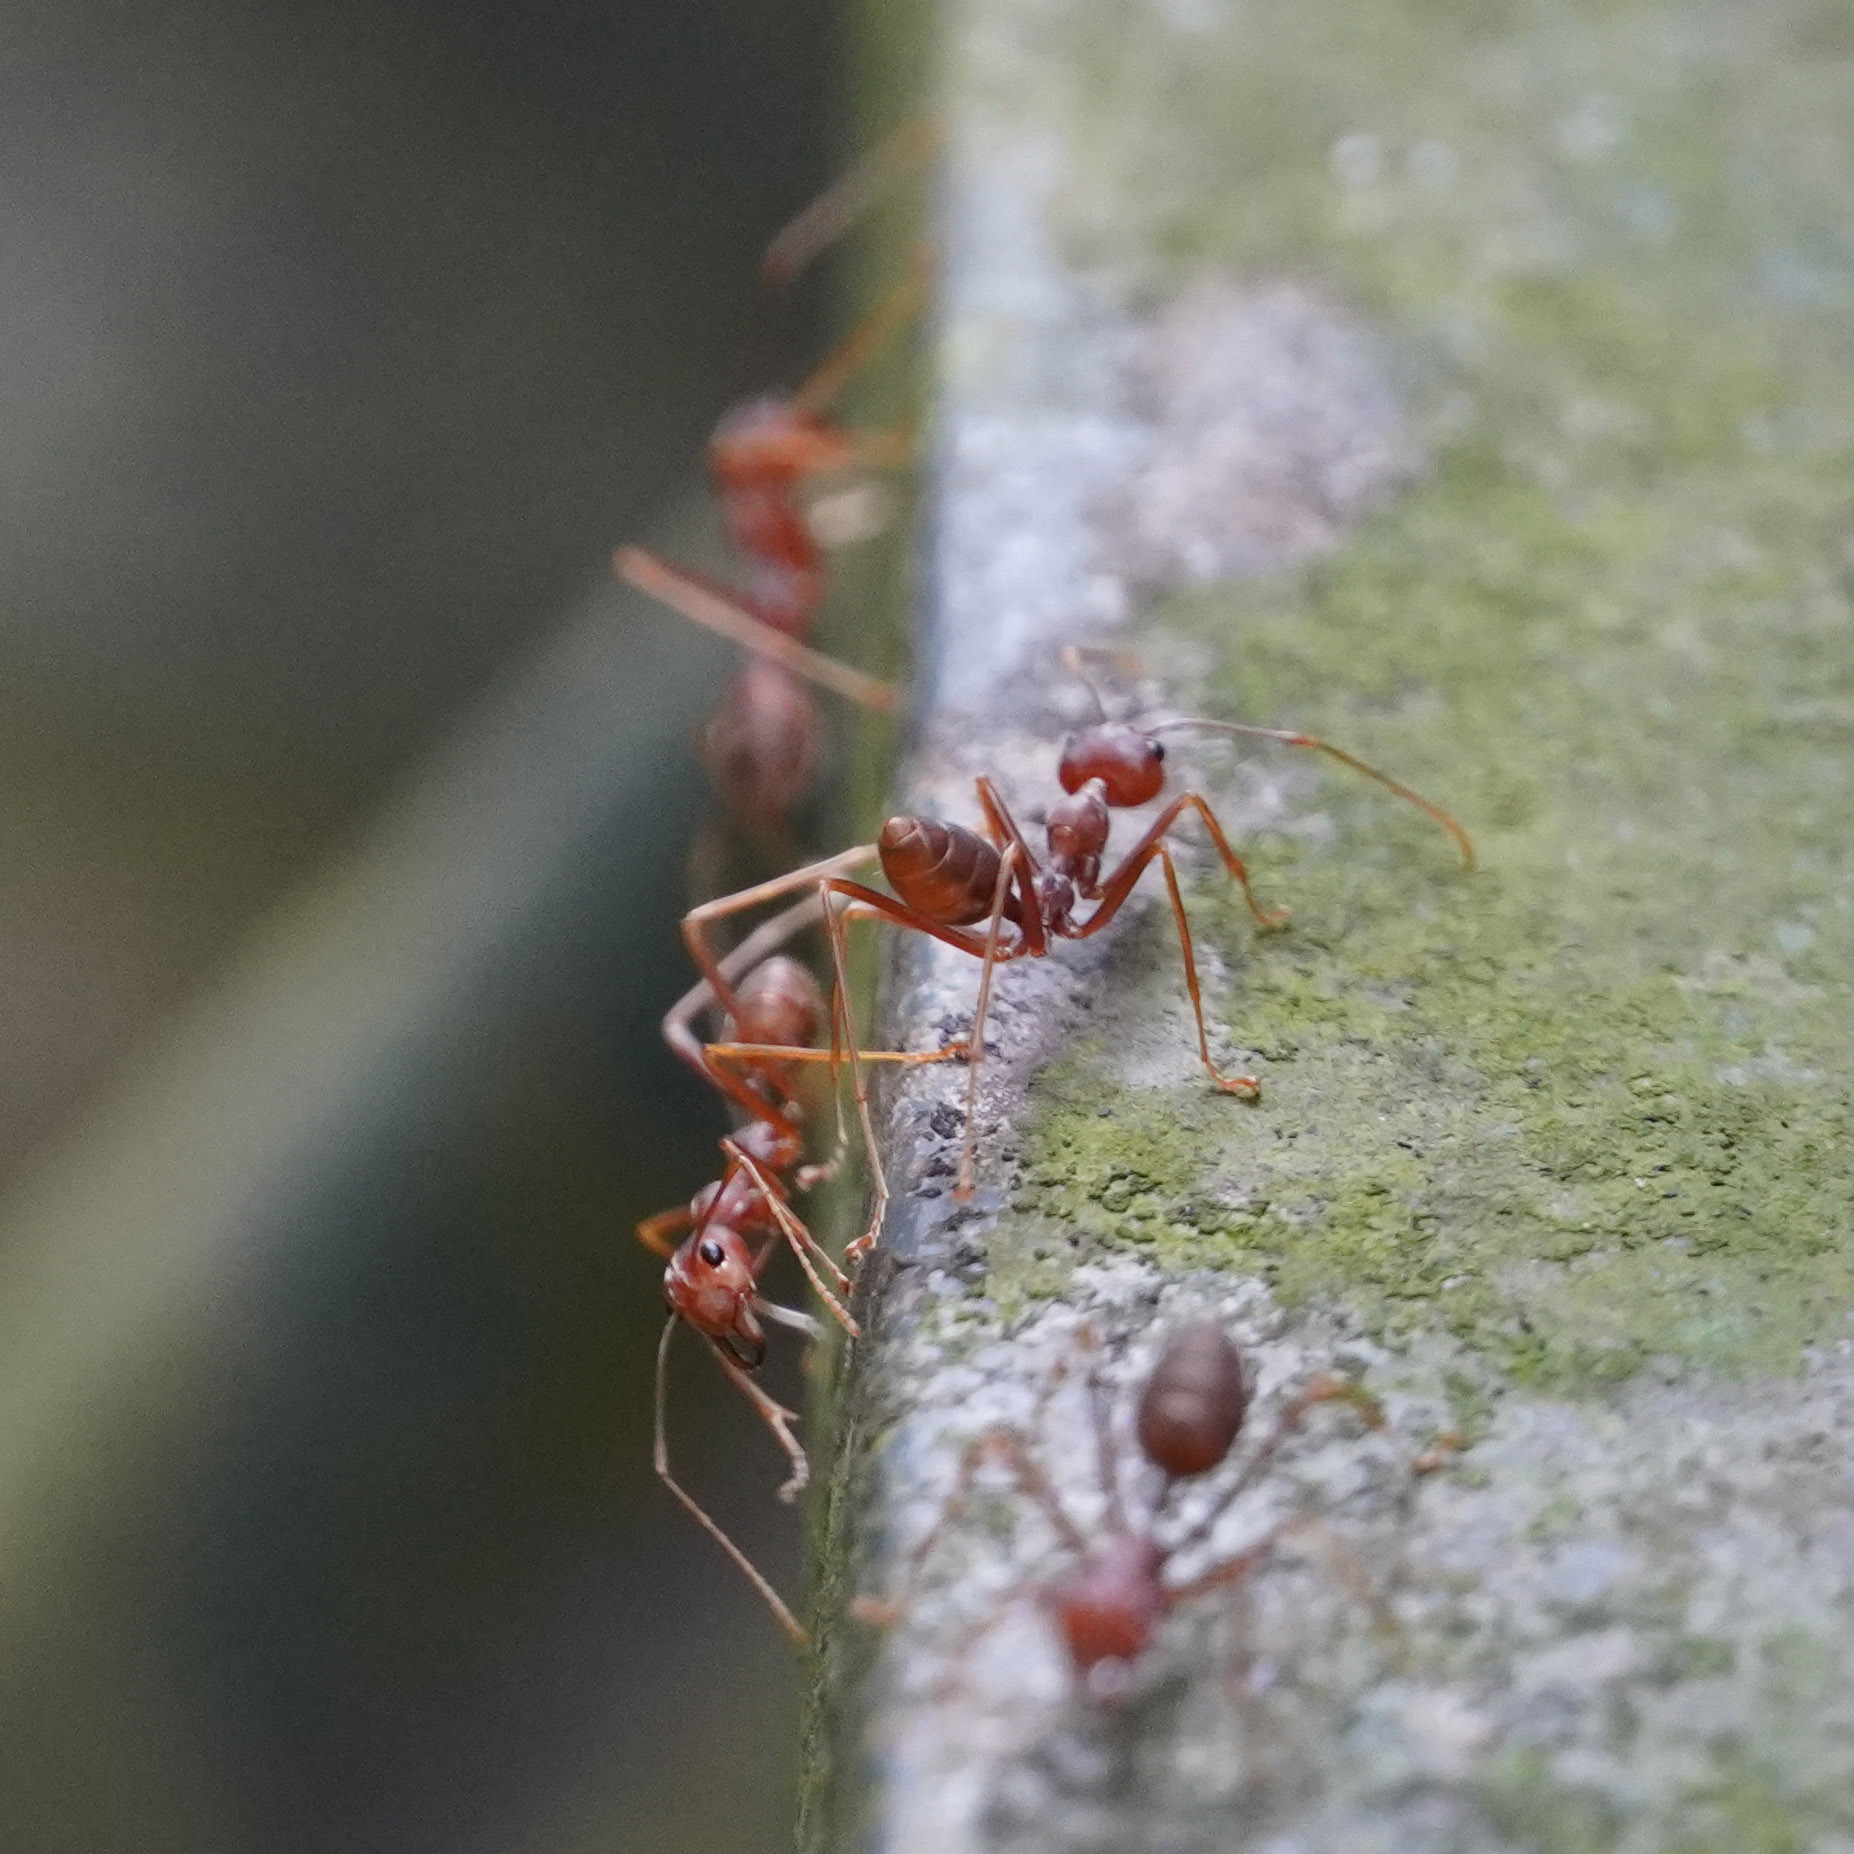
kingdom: Animalia
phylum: Arthropoda
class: Insecta
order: Hymenoptera
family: Formicidae
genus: Oecophylla
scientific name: Oecophylla smaragdina
